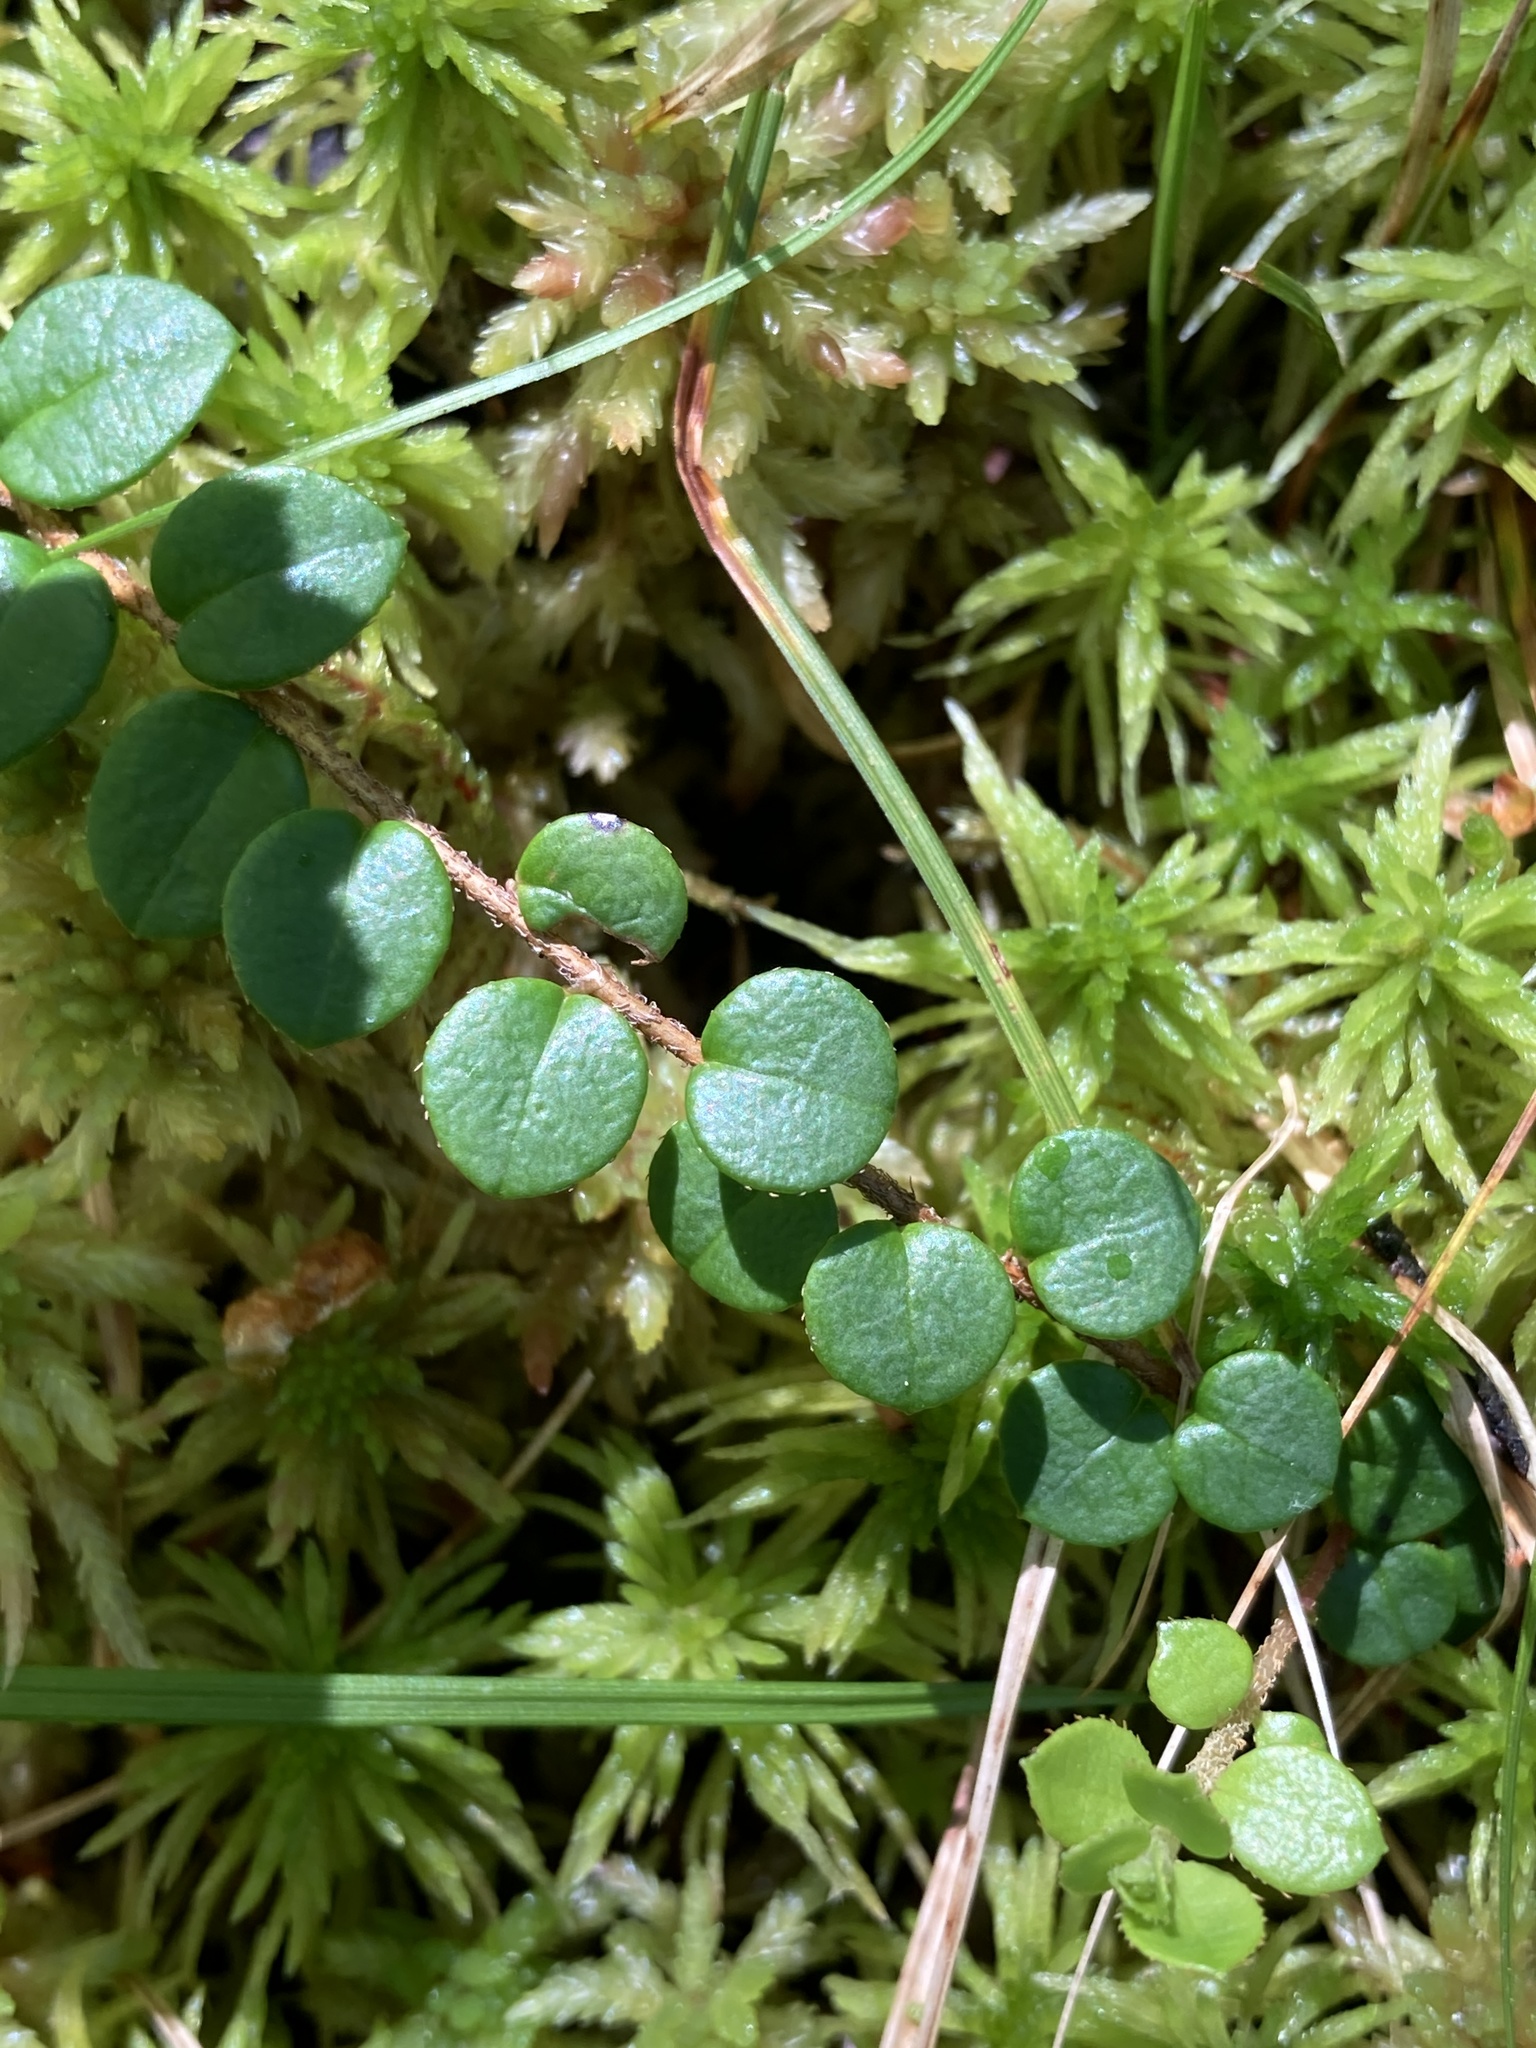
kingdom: Plantae
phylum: Tracheophyta
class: Magnoliopsida
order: Ericales
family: Ericaceae
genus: Gaultheria
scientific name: Gaultheria hispidula
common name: Cancer wintergreen
